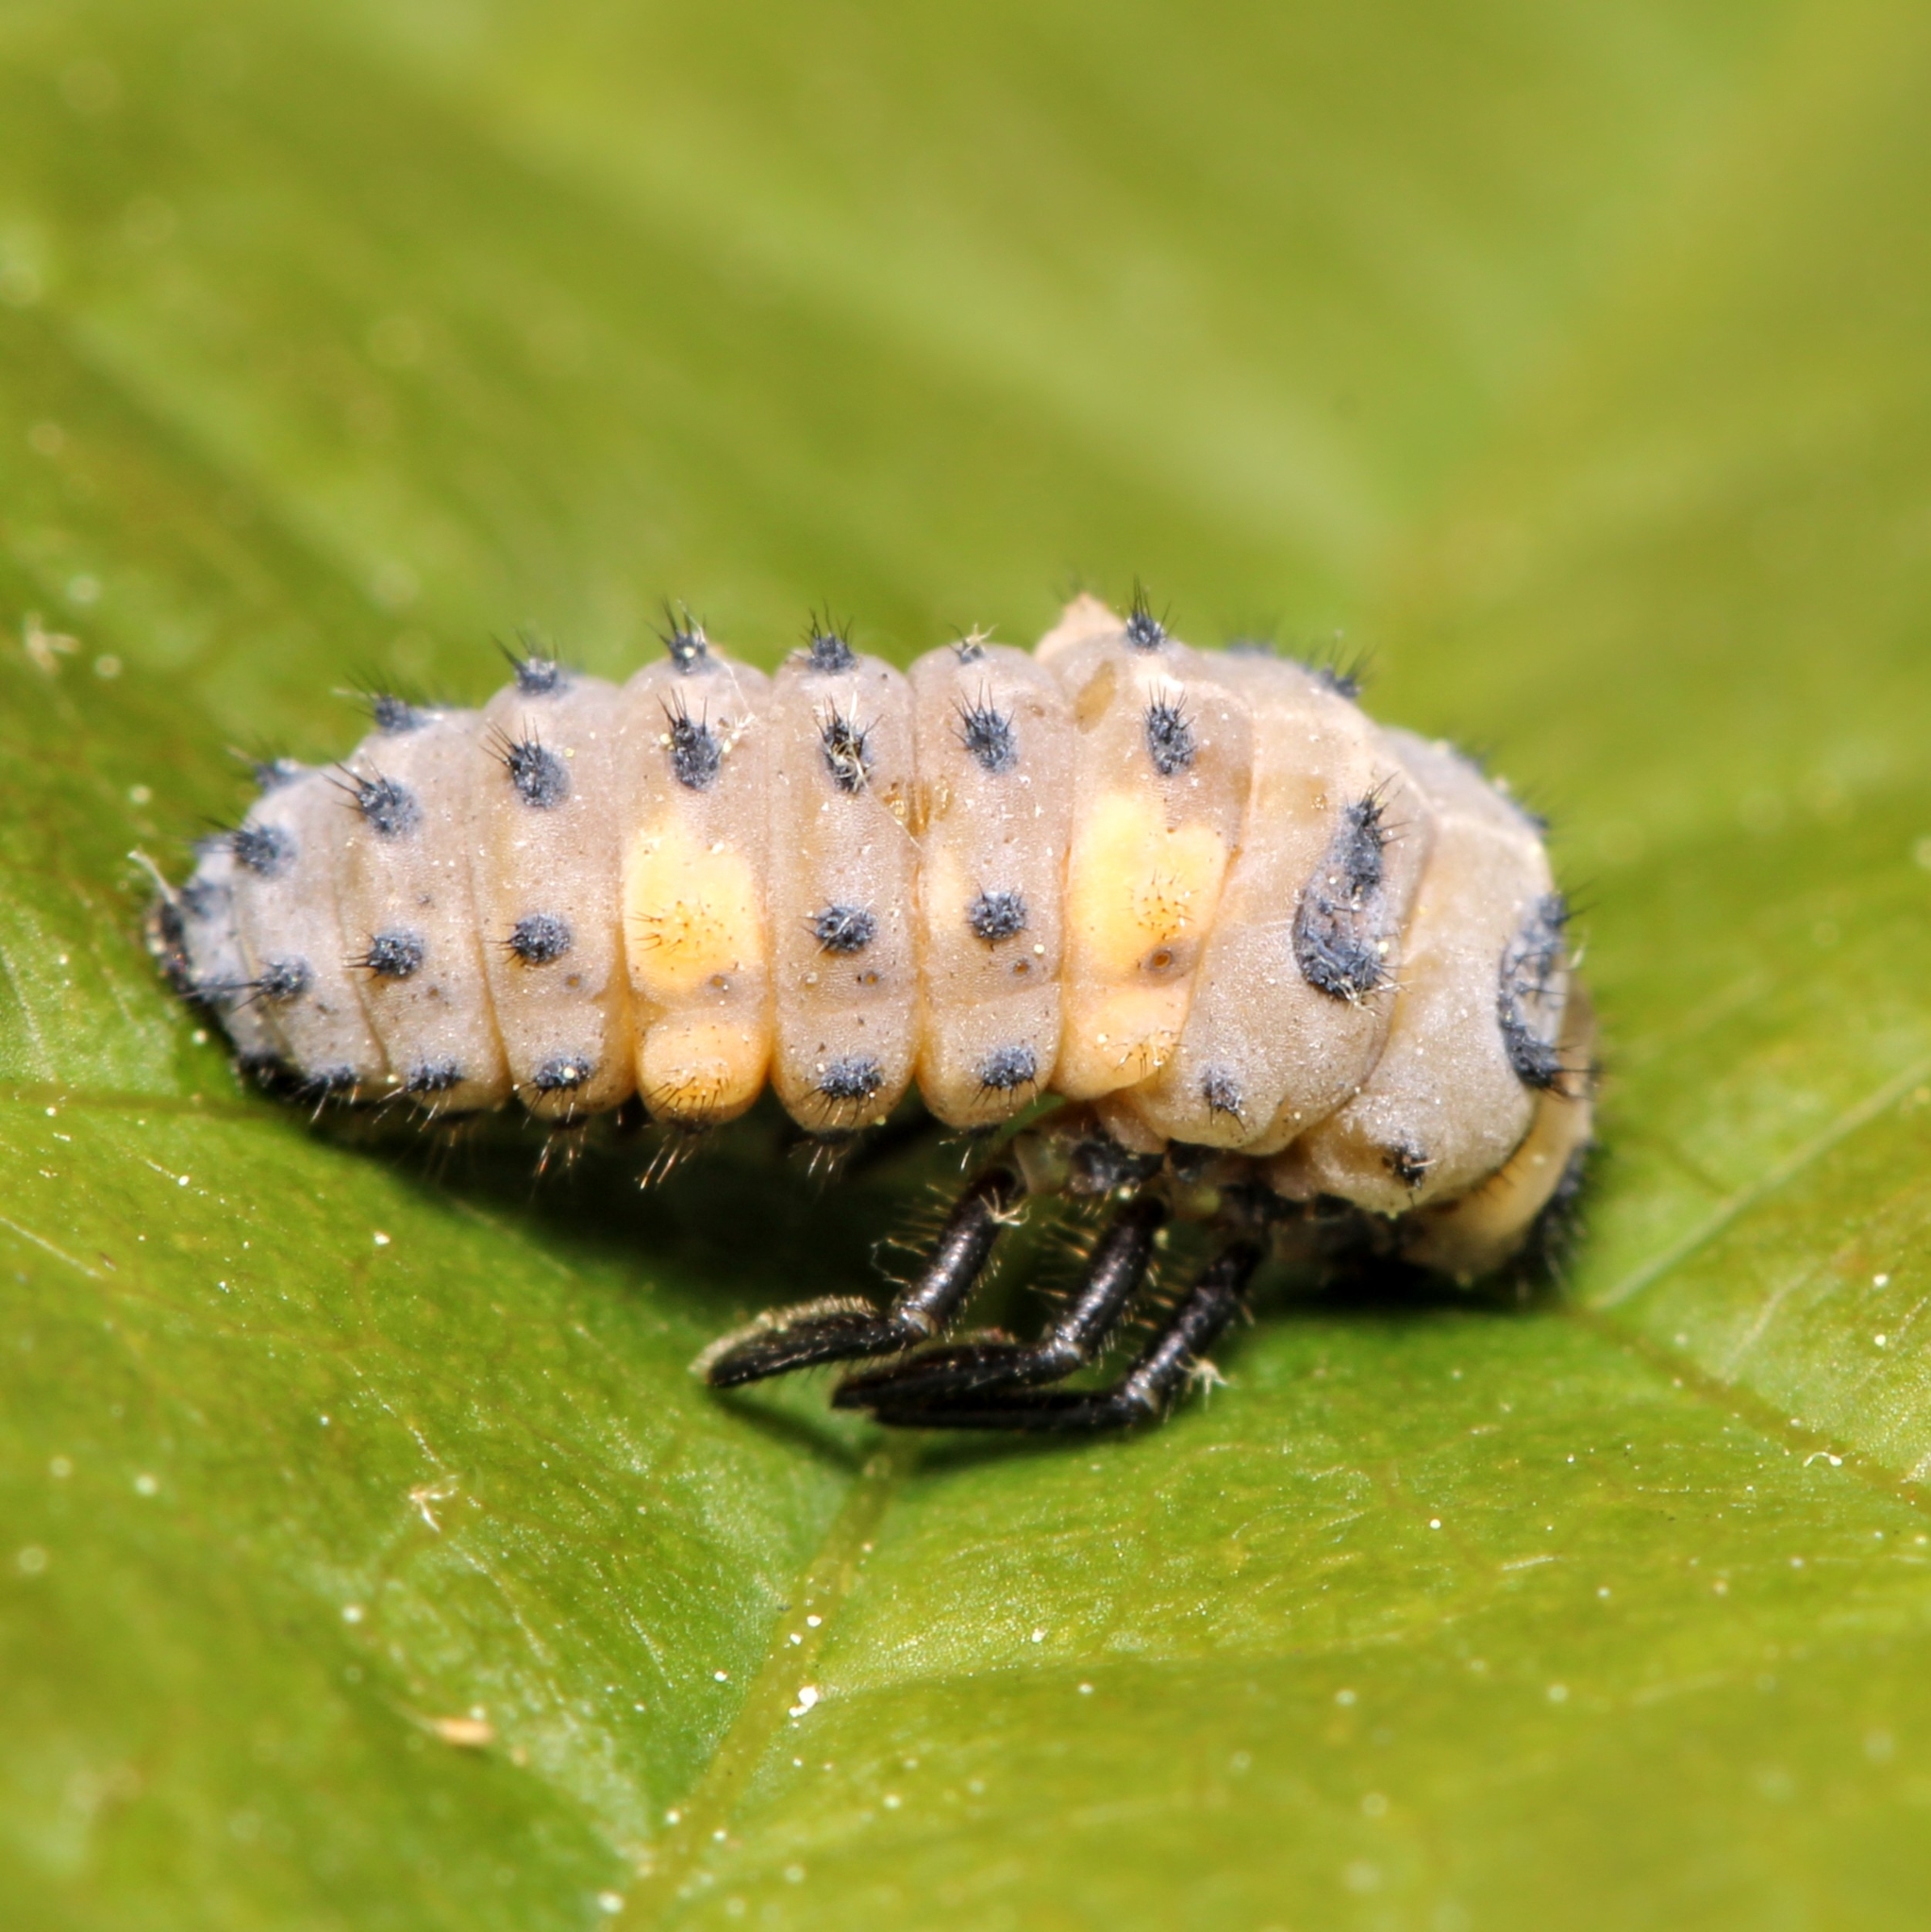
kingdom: Animalia
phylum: Arthropoda
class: Insecta
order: Coleoptera
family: Coccinellidae
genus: Coccinella
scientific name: Coccinella septempunctata
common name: Sevenspotted lady beetle
